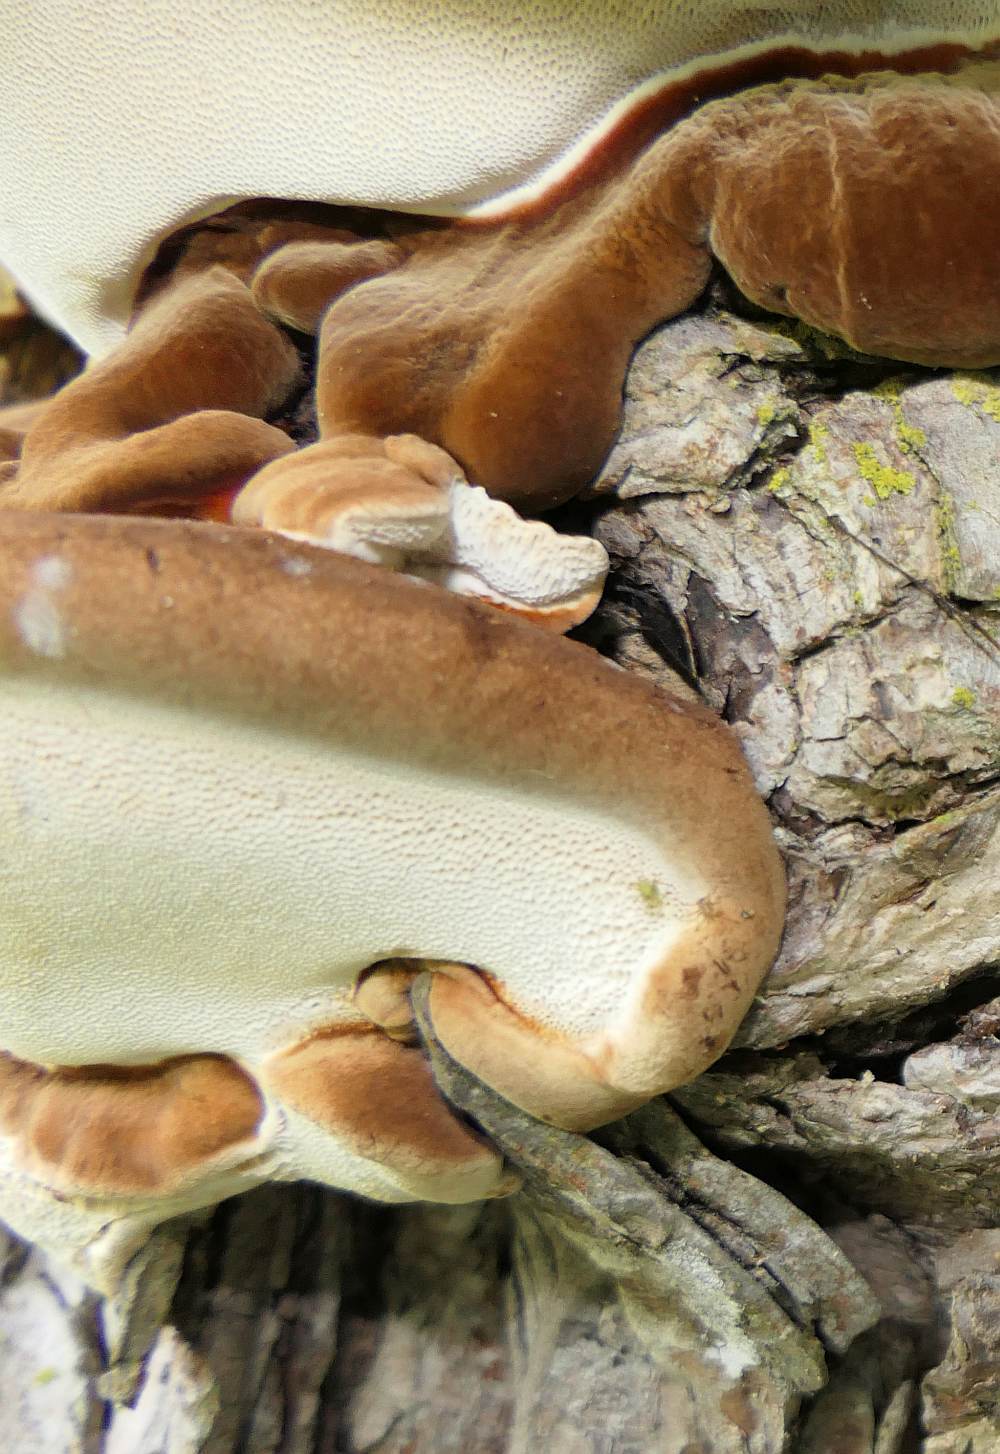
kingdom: Fungi
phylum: Basidiomycota
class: Agaricomycetes
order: Polyporales
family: Ischnodermataceae
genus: Ischnoderma
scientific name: Ischnoderma resinosum
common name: Resinous polypore
